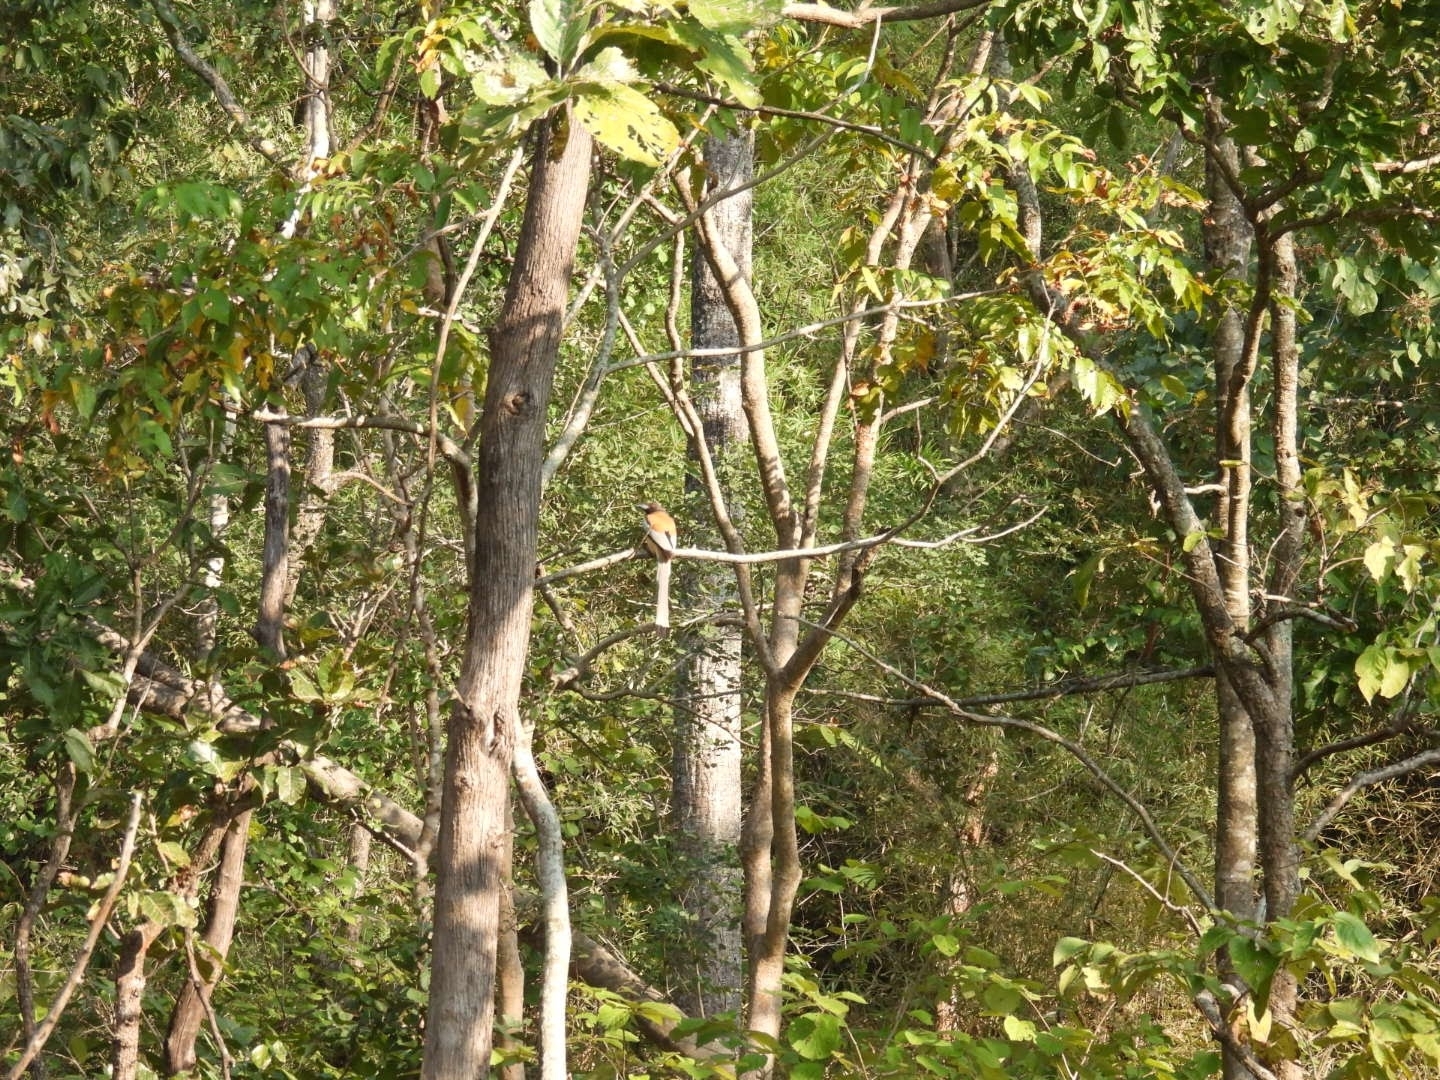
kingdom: Animalia
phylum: Chordata
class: Aves
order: Passeriformes
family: Corvidae
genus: Dendrocitta
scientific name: Dendrocitta vagabunda
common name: Rufous treepie
